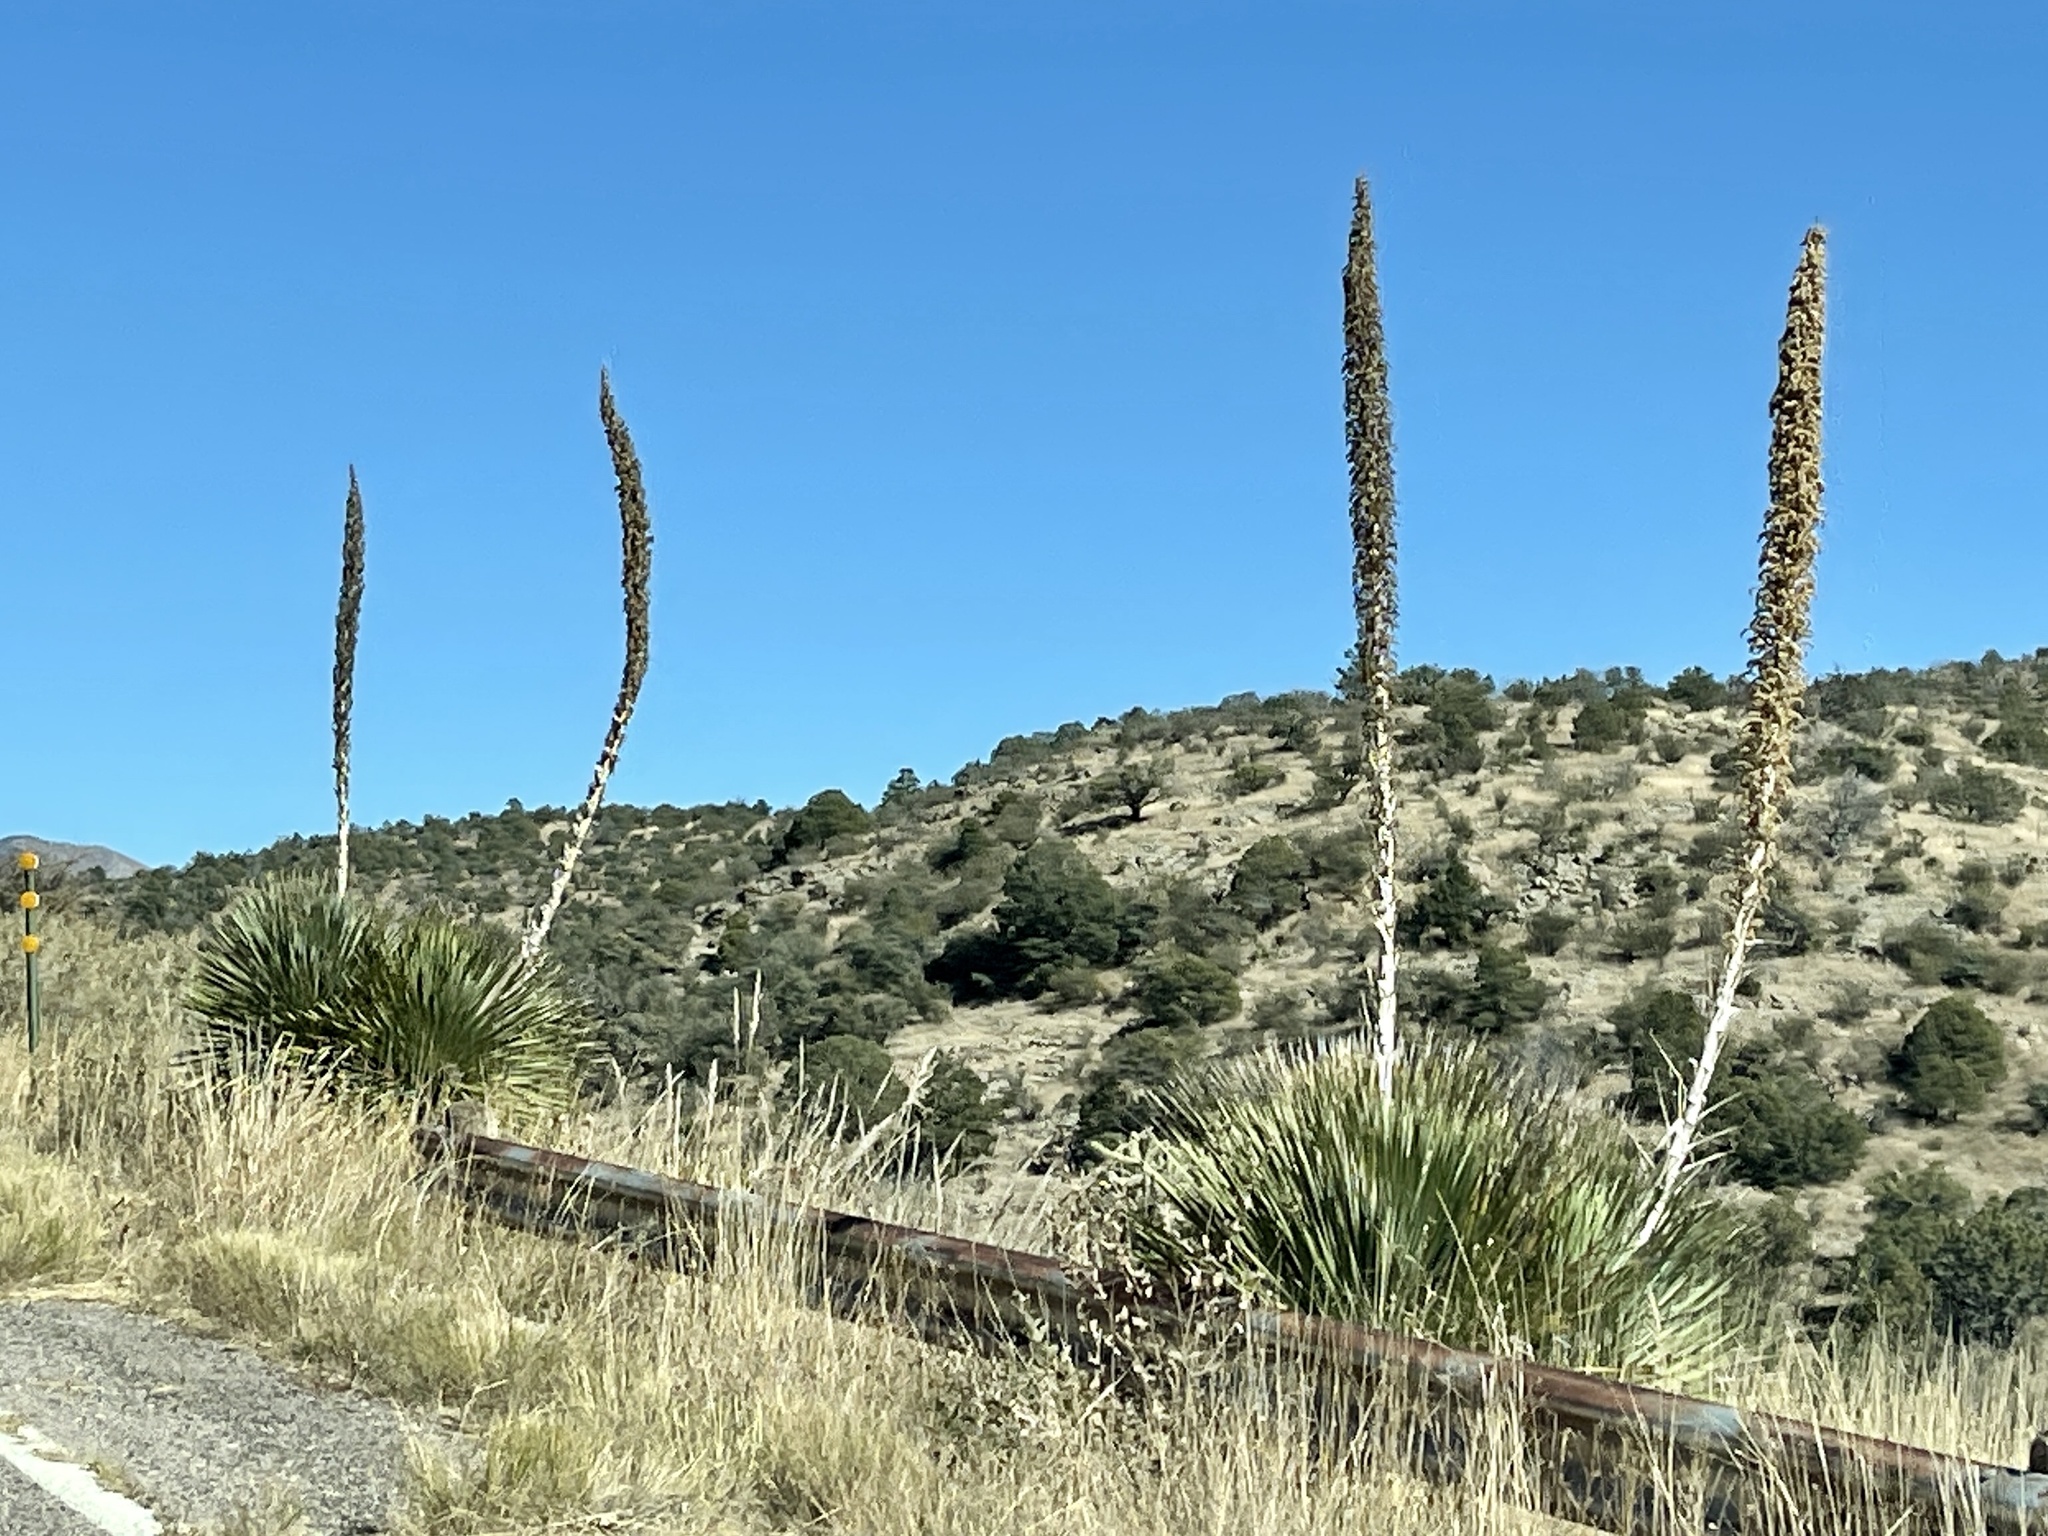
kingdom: Plantae
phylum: Tracheophyta
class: Liliopsida
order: Asparagales
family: Asparagaceae
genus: Dasylirion
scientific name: Dasylirion wheeleri
